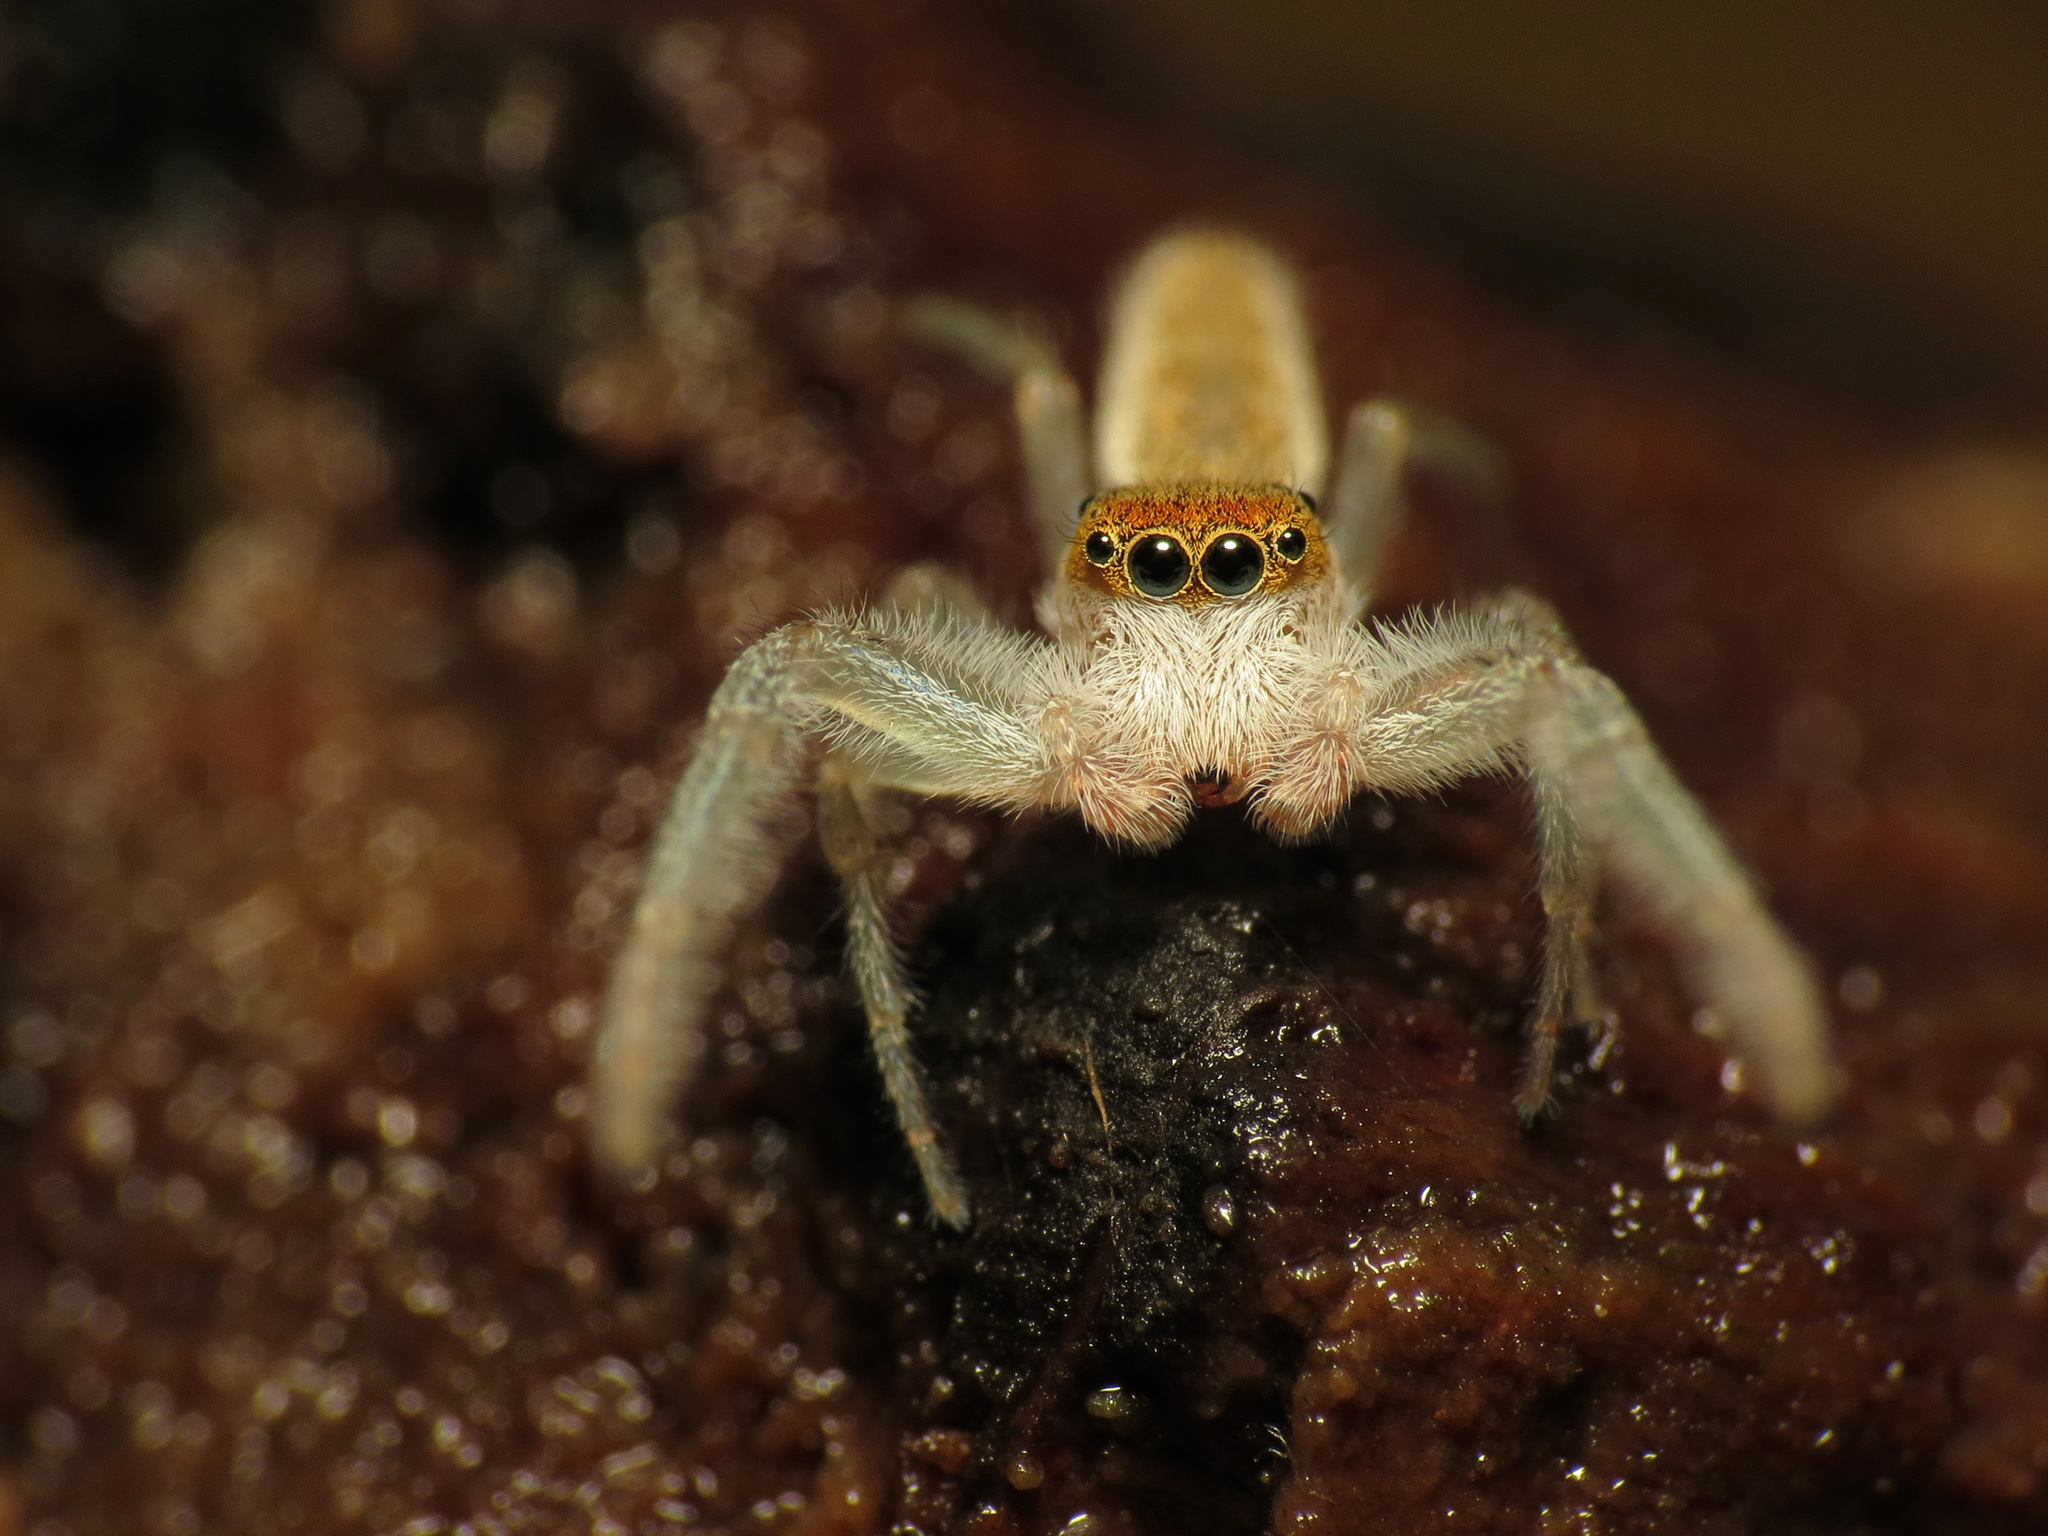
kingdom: Animalia
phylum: Arthropoda
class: Arachnida
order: Araneae
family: Salticidae
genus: Hentzia
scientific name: Hentzia mitrata
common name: White-jawed jumping spider
